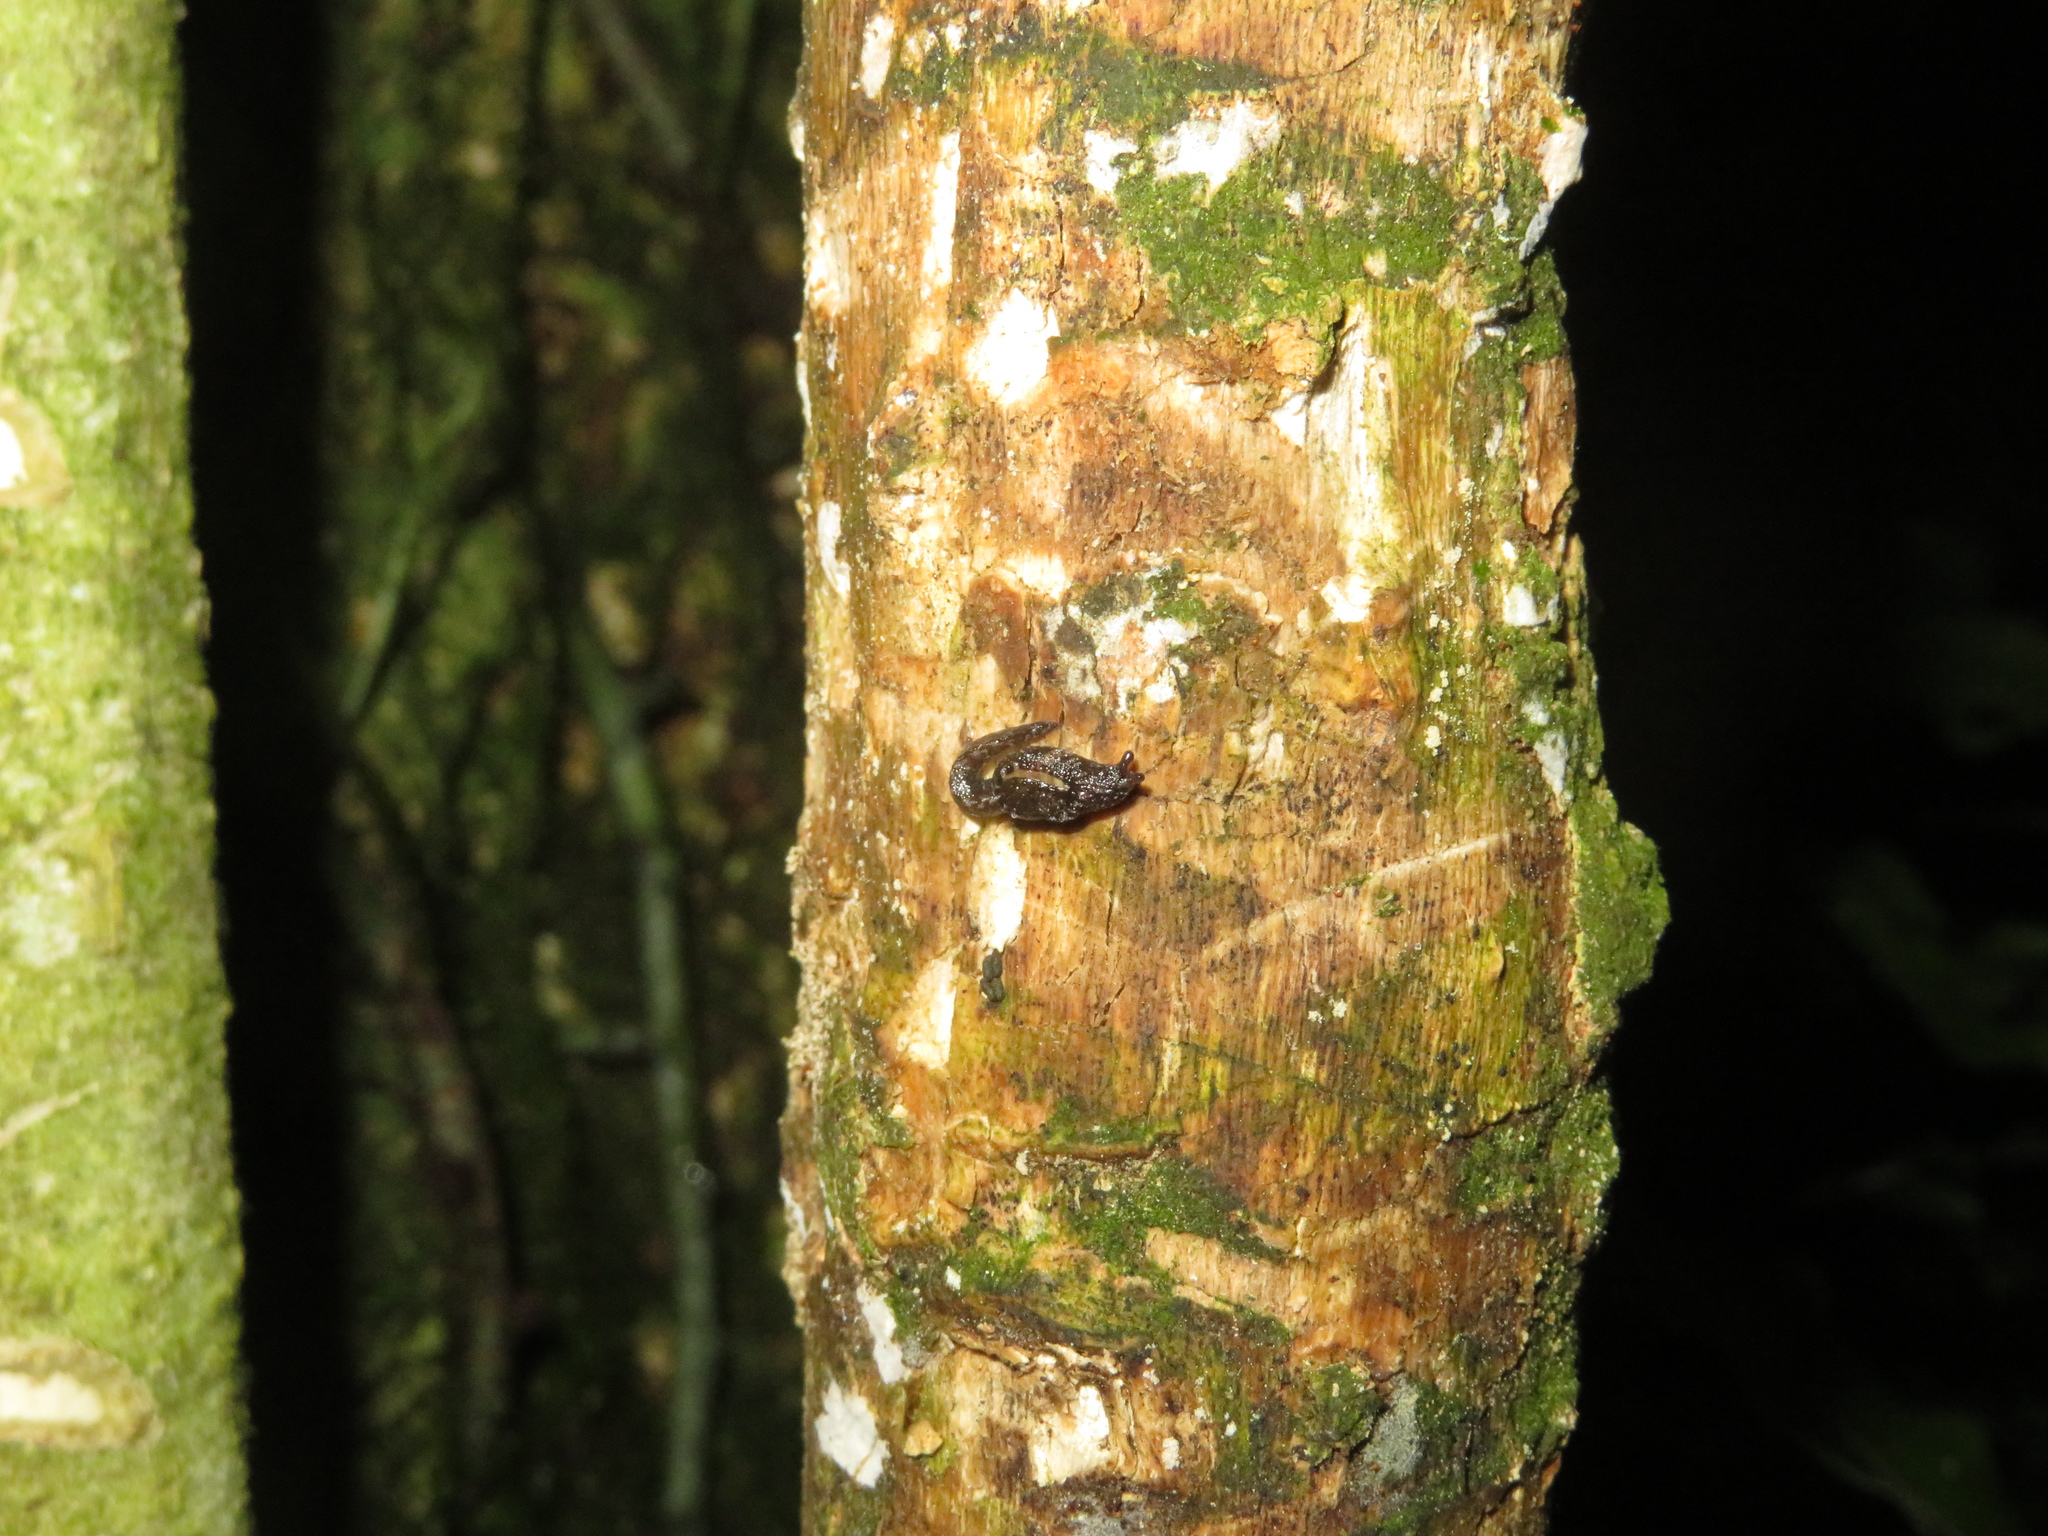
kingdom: Animalia
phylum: Mollusca
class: Gastropoda
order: Stylommatophora
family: Charopidae
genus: Otoconcha
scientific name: Otoconcha dimidiata
